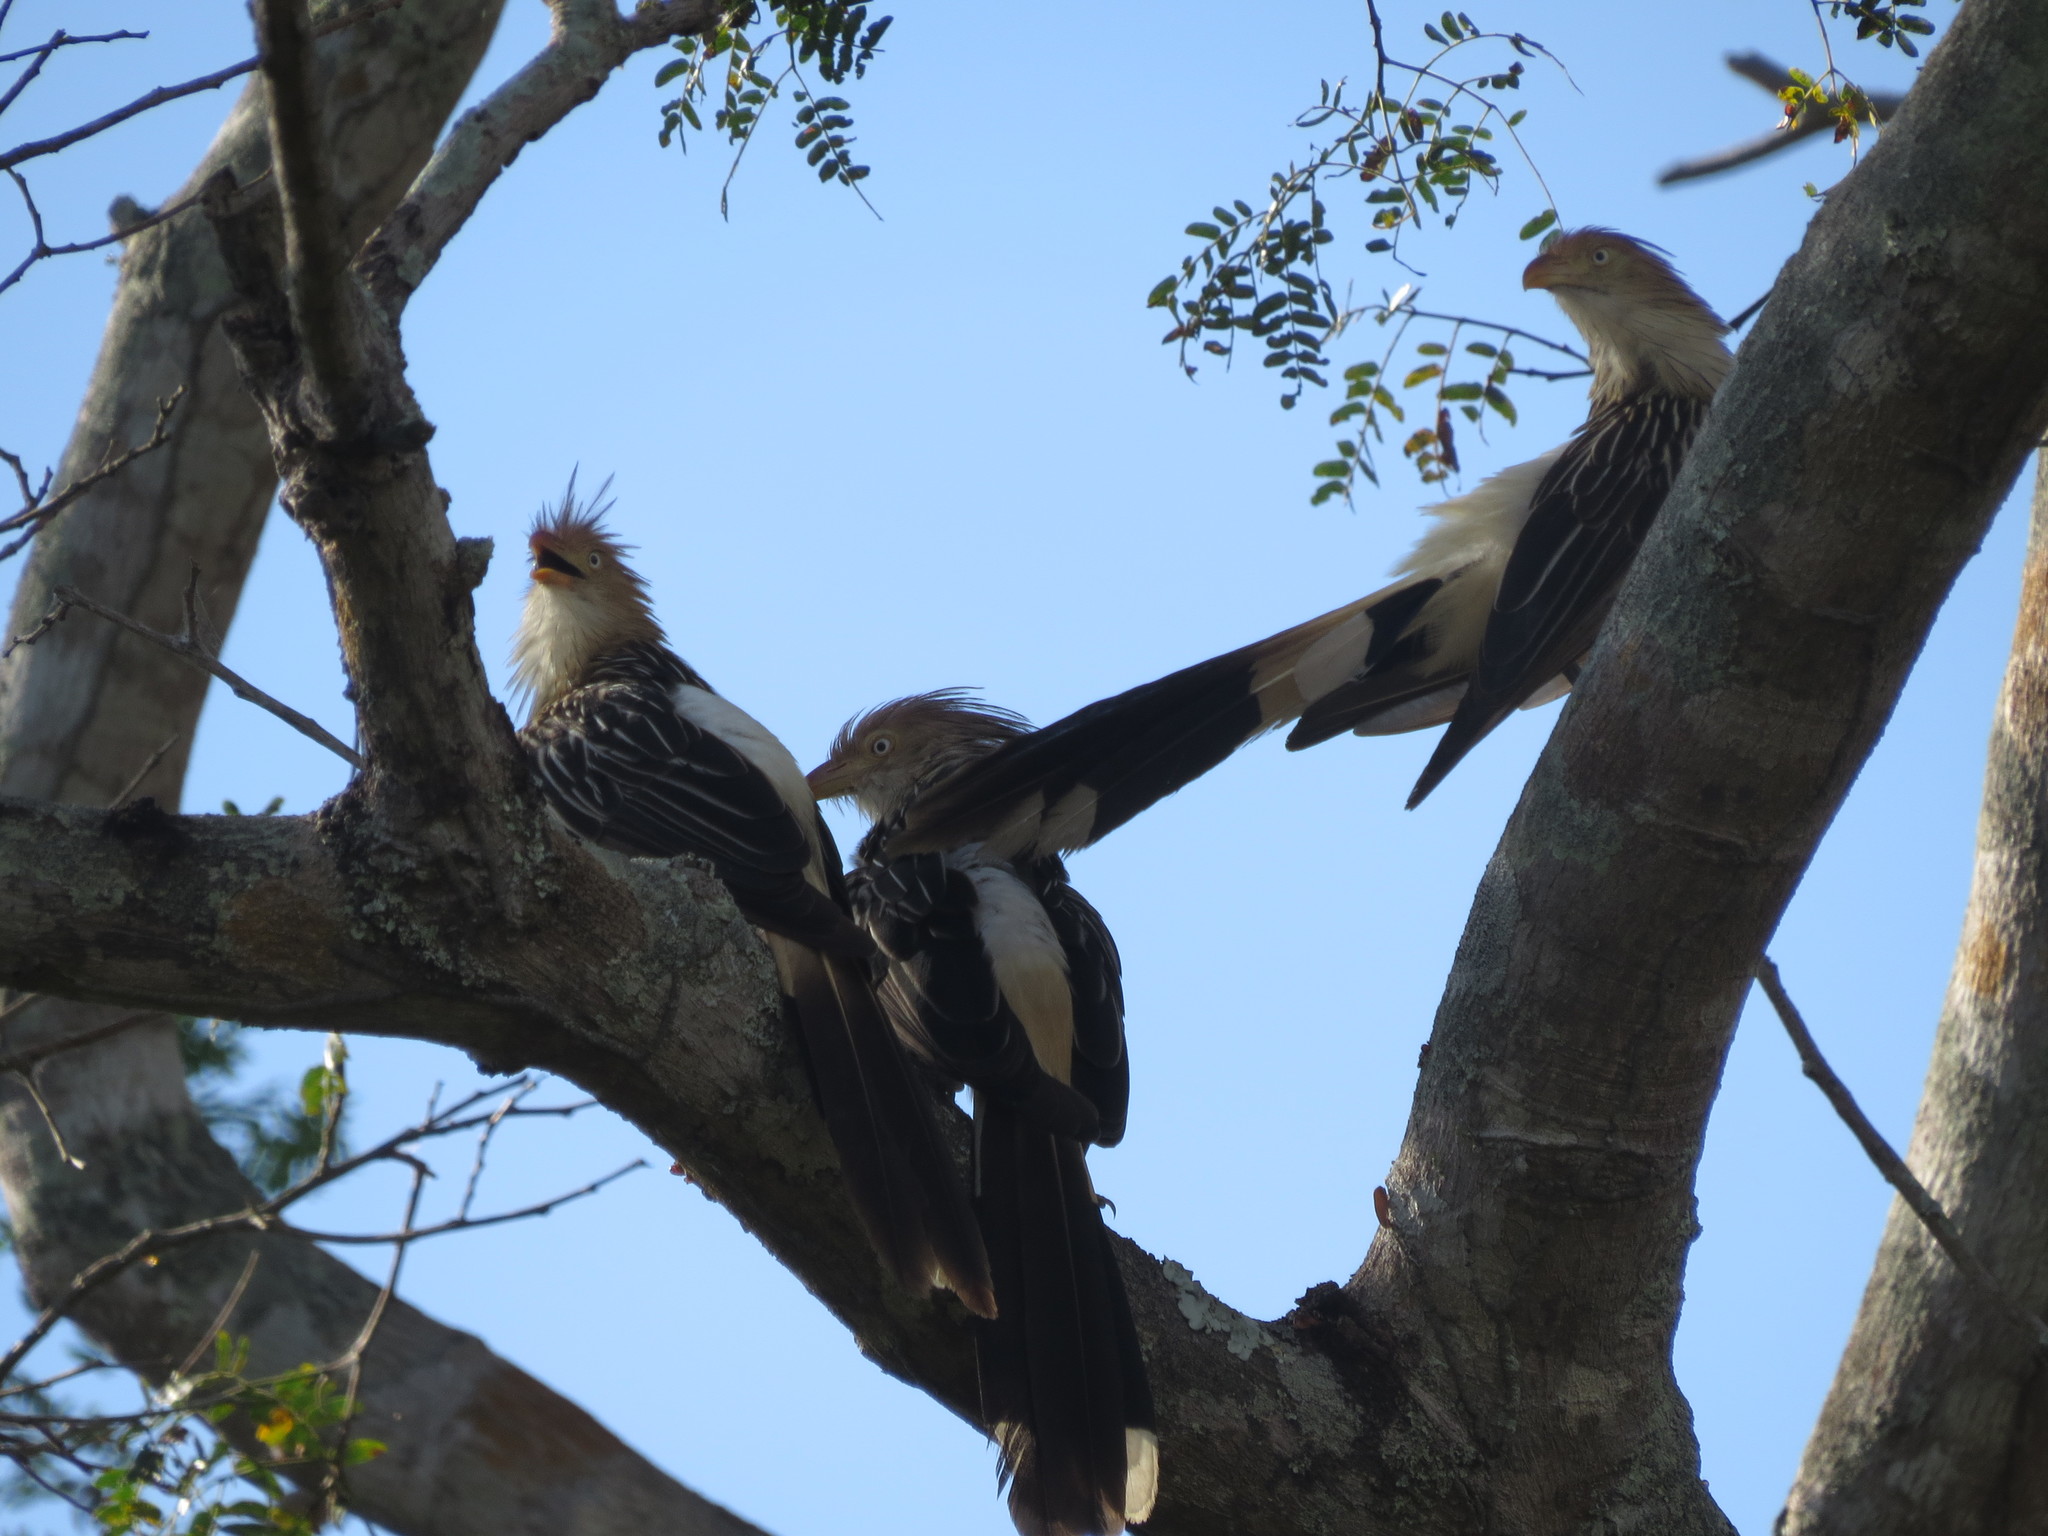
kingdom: Animalia
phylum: Chordata
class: Aves
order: Cuculiformes
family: Cuculidae
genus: Guira
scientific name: Guira guira
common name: Guira cuckoo
